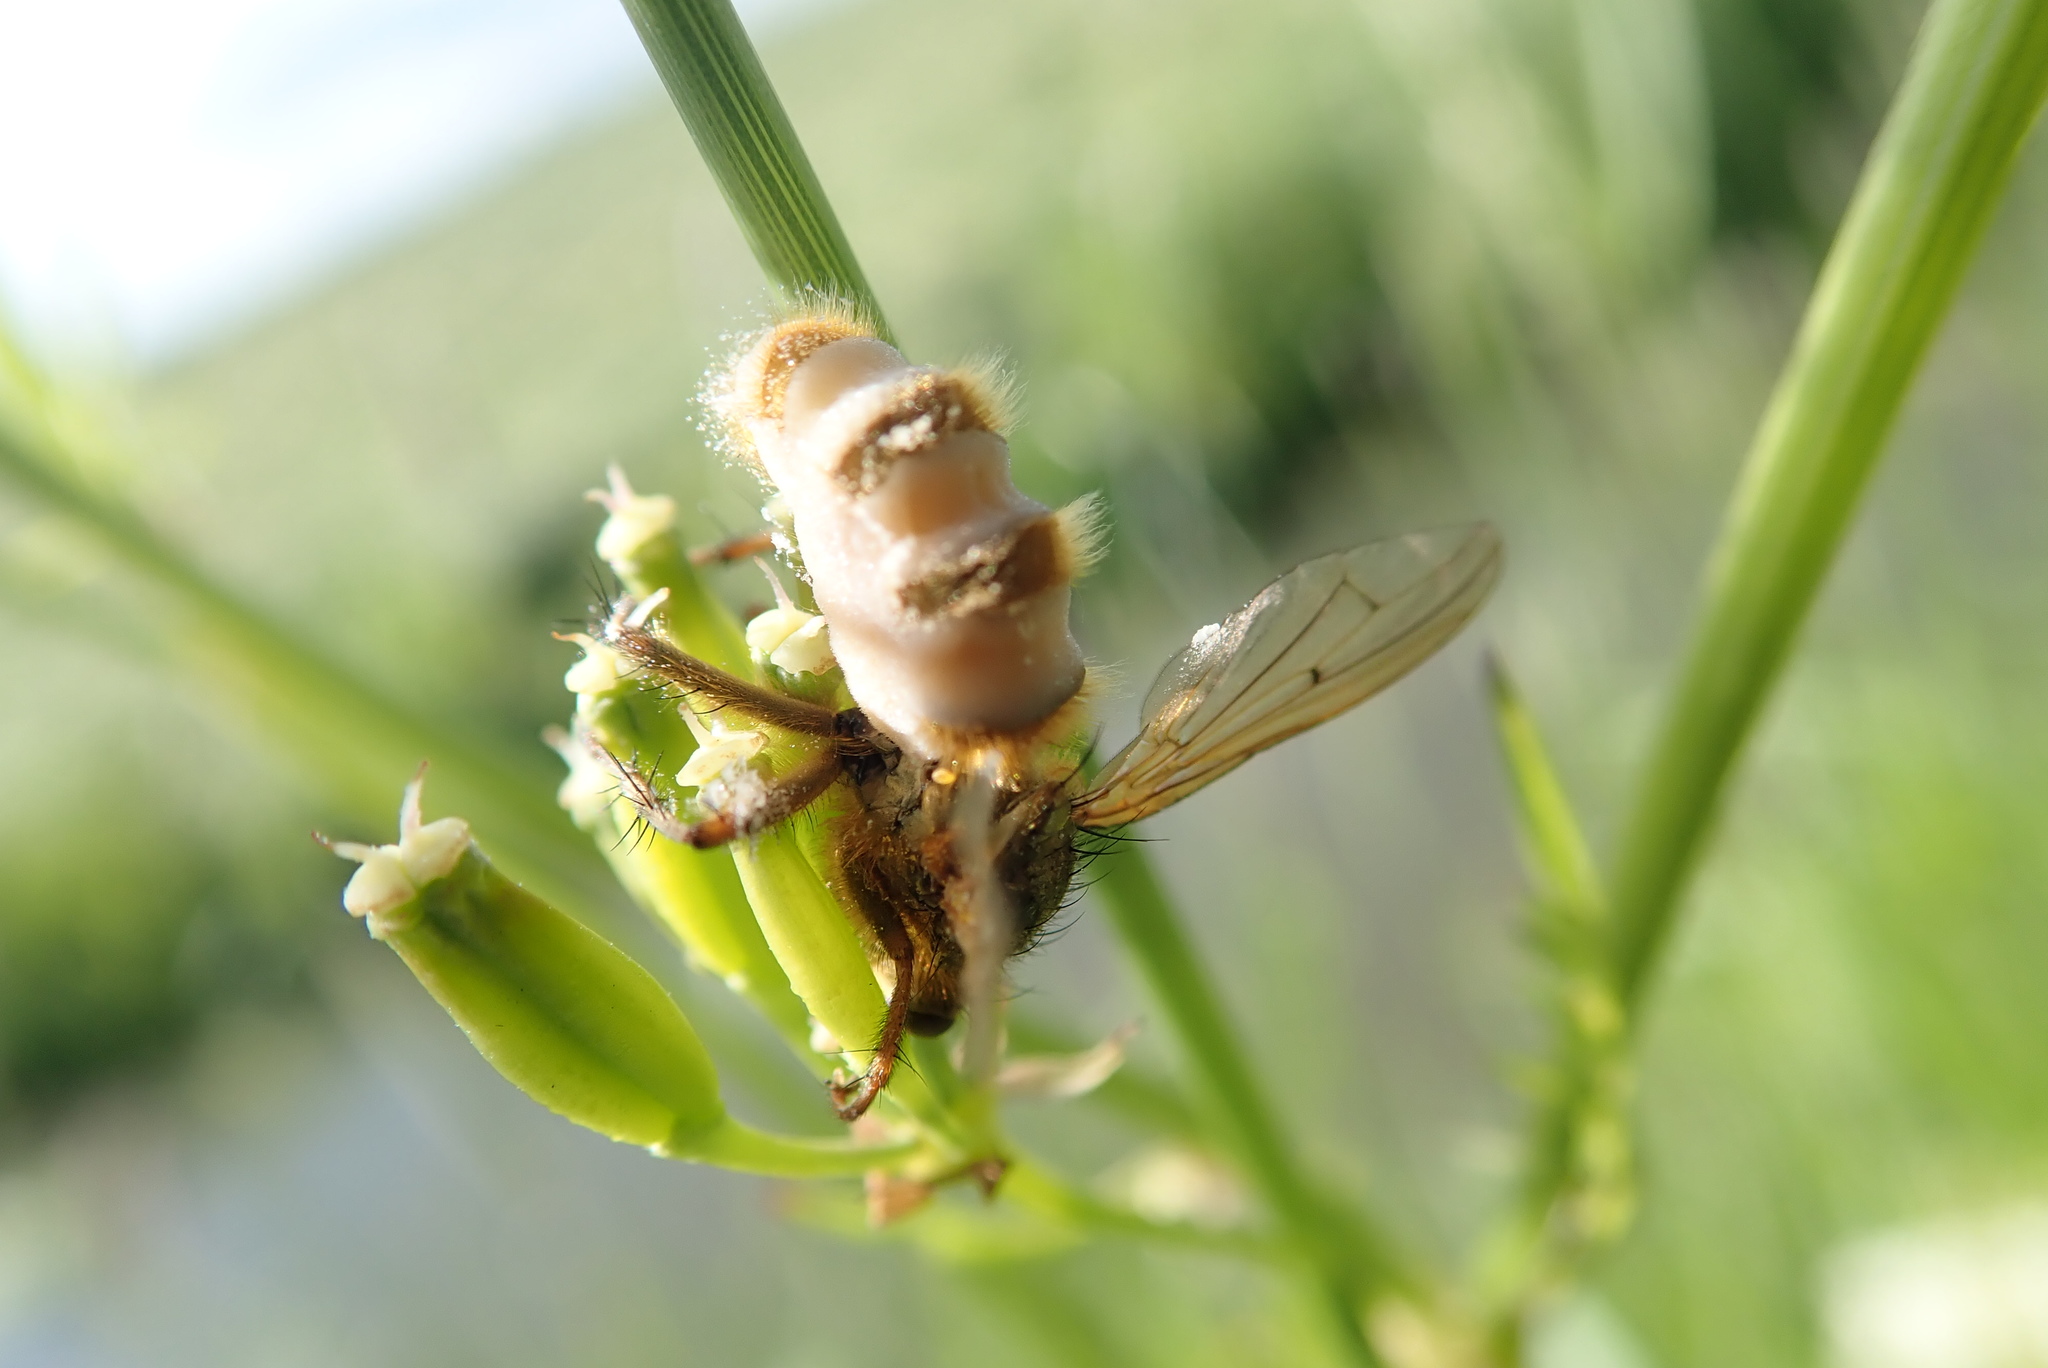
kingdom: Fungi
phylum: Entomophthoromycota
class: Entomophthoromycetes
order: Entomophthorales
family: Entomophthoraceae
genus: Entomophthora
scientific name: Entomophthora
